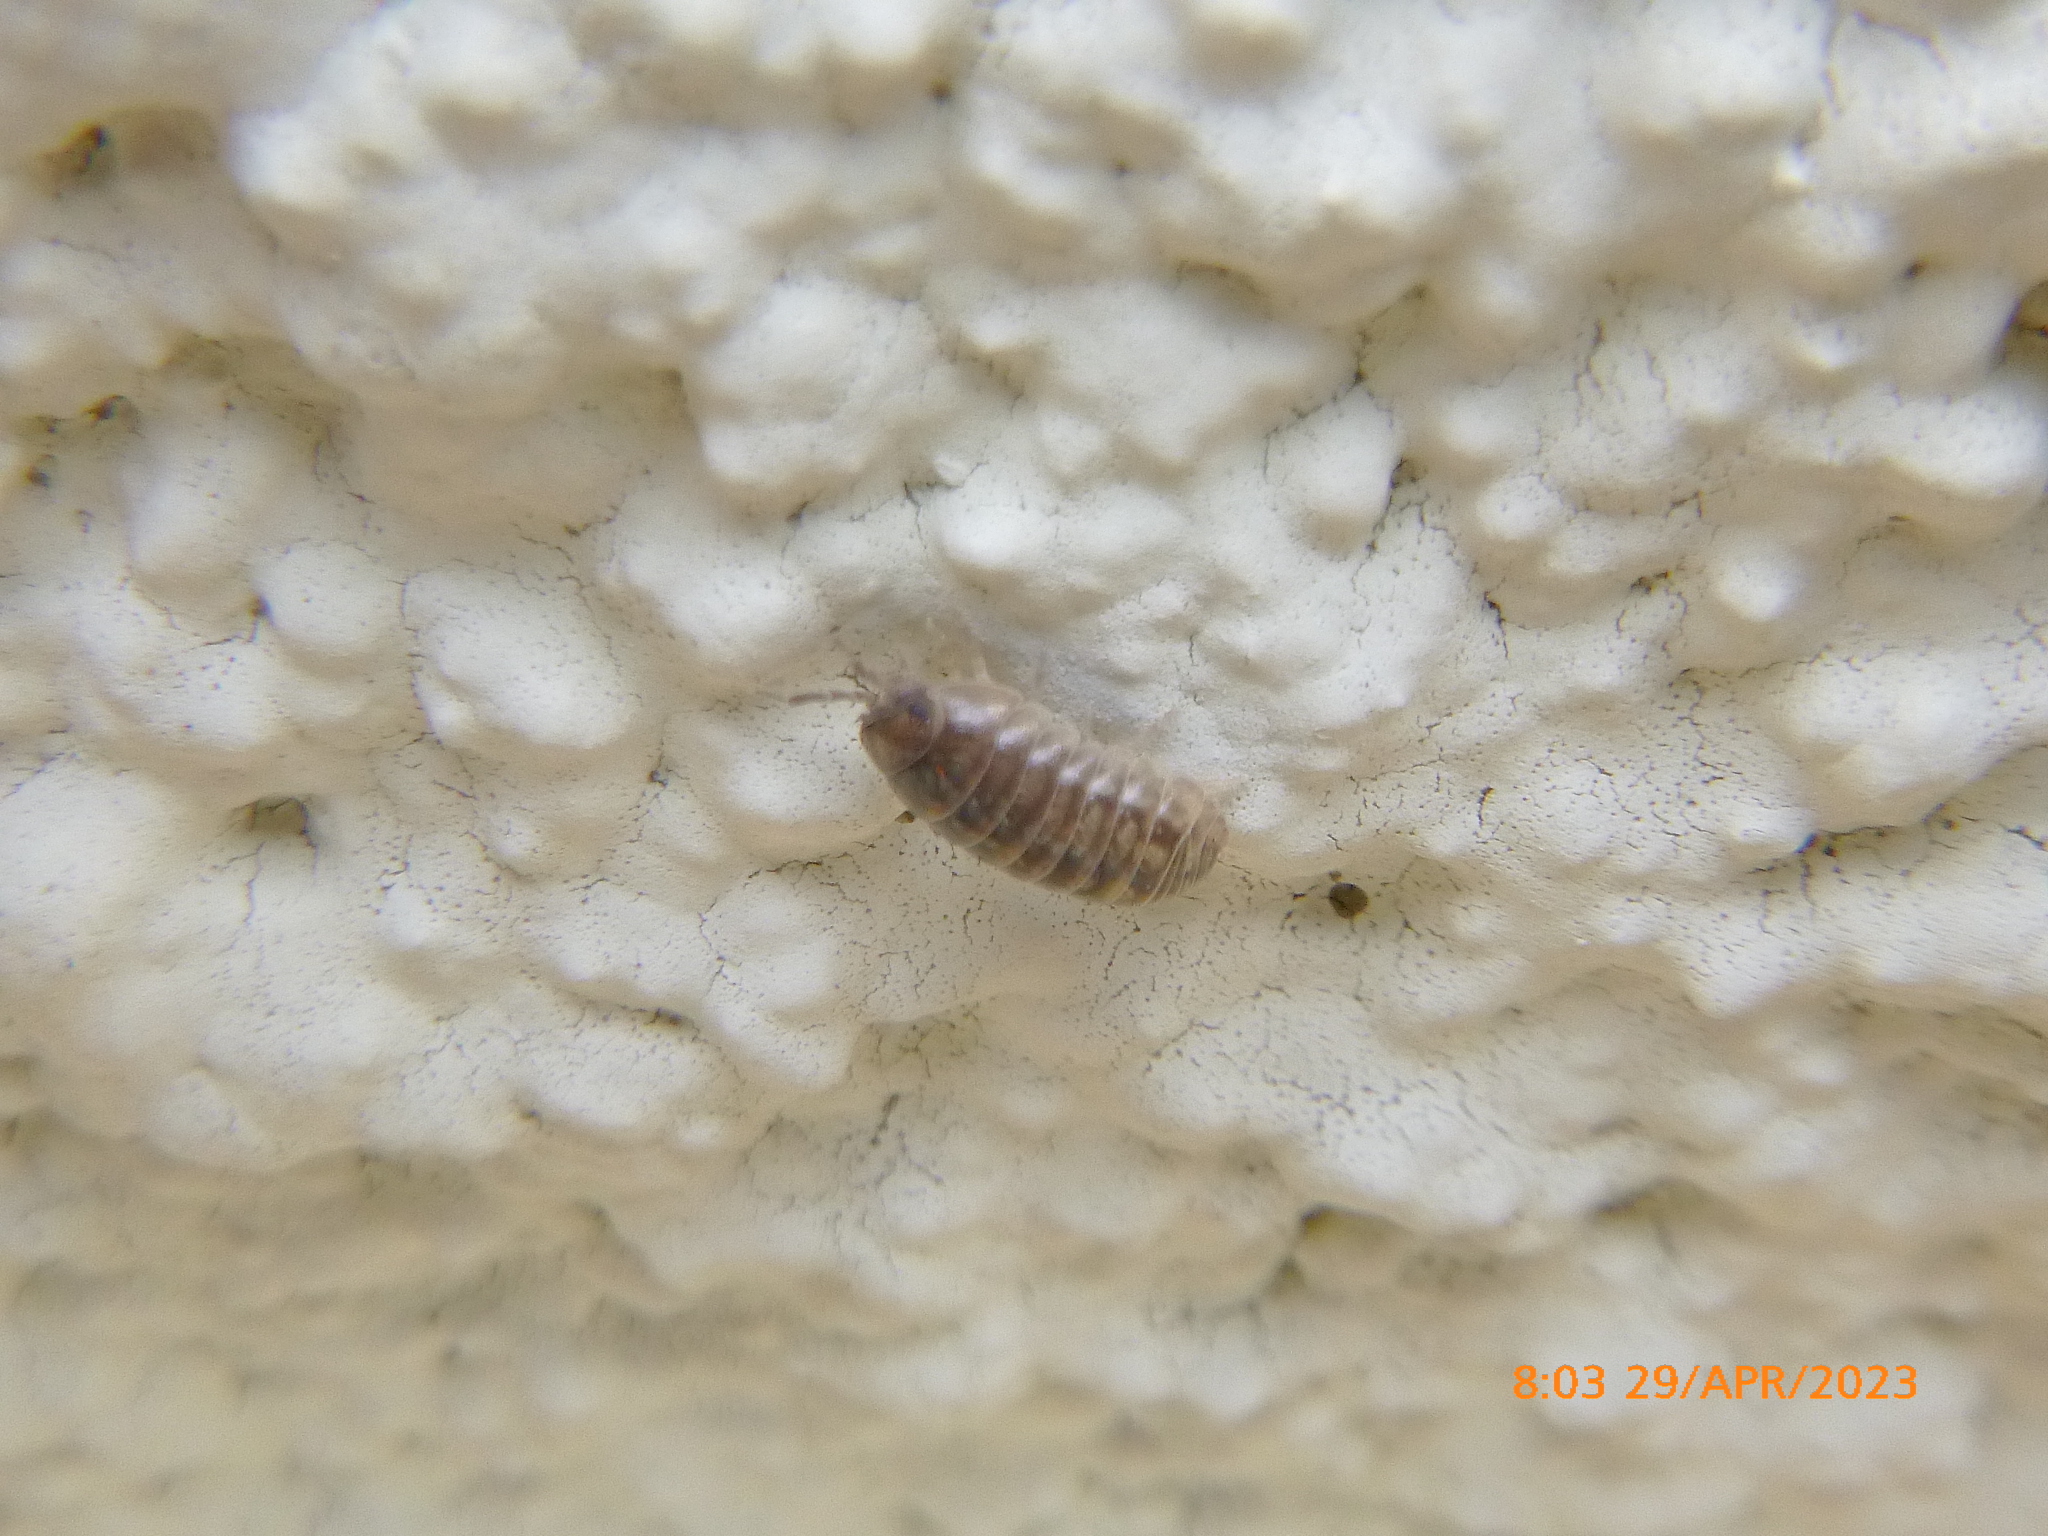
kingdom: Animalia
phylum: Arthropoda
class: Malacostraca
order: Isopoda
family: Armadillidiidae
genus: Armadillidium
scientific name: Armadillidium vulgare
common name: Common pill woodlouse
